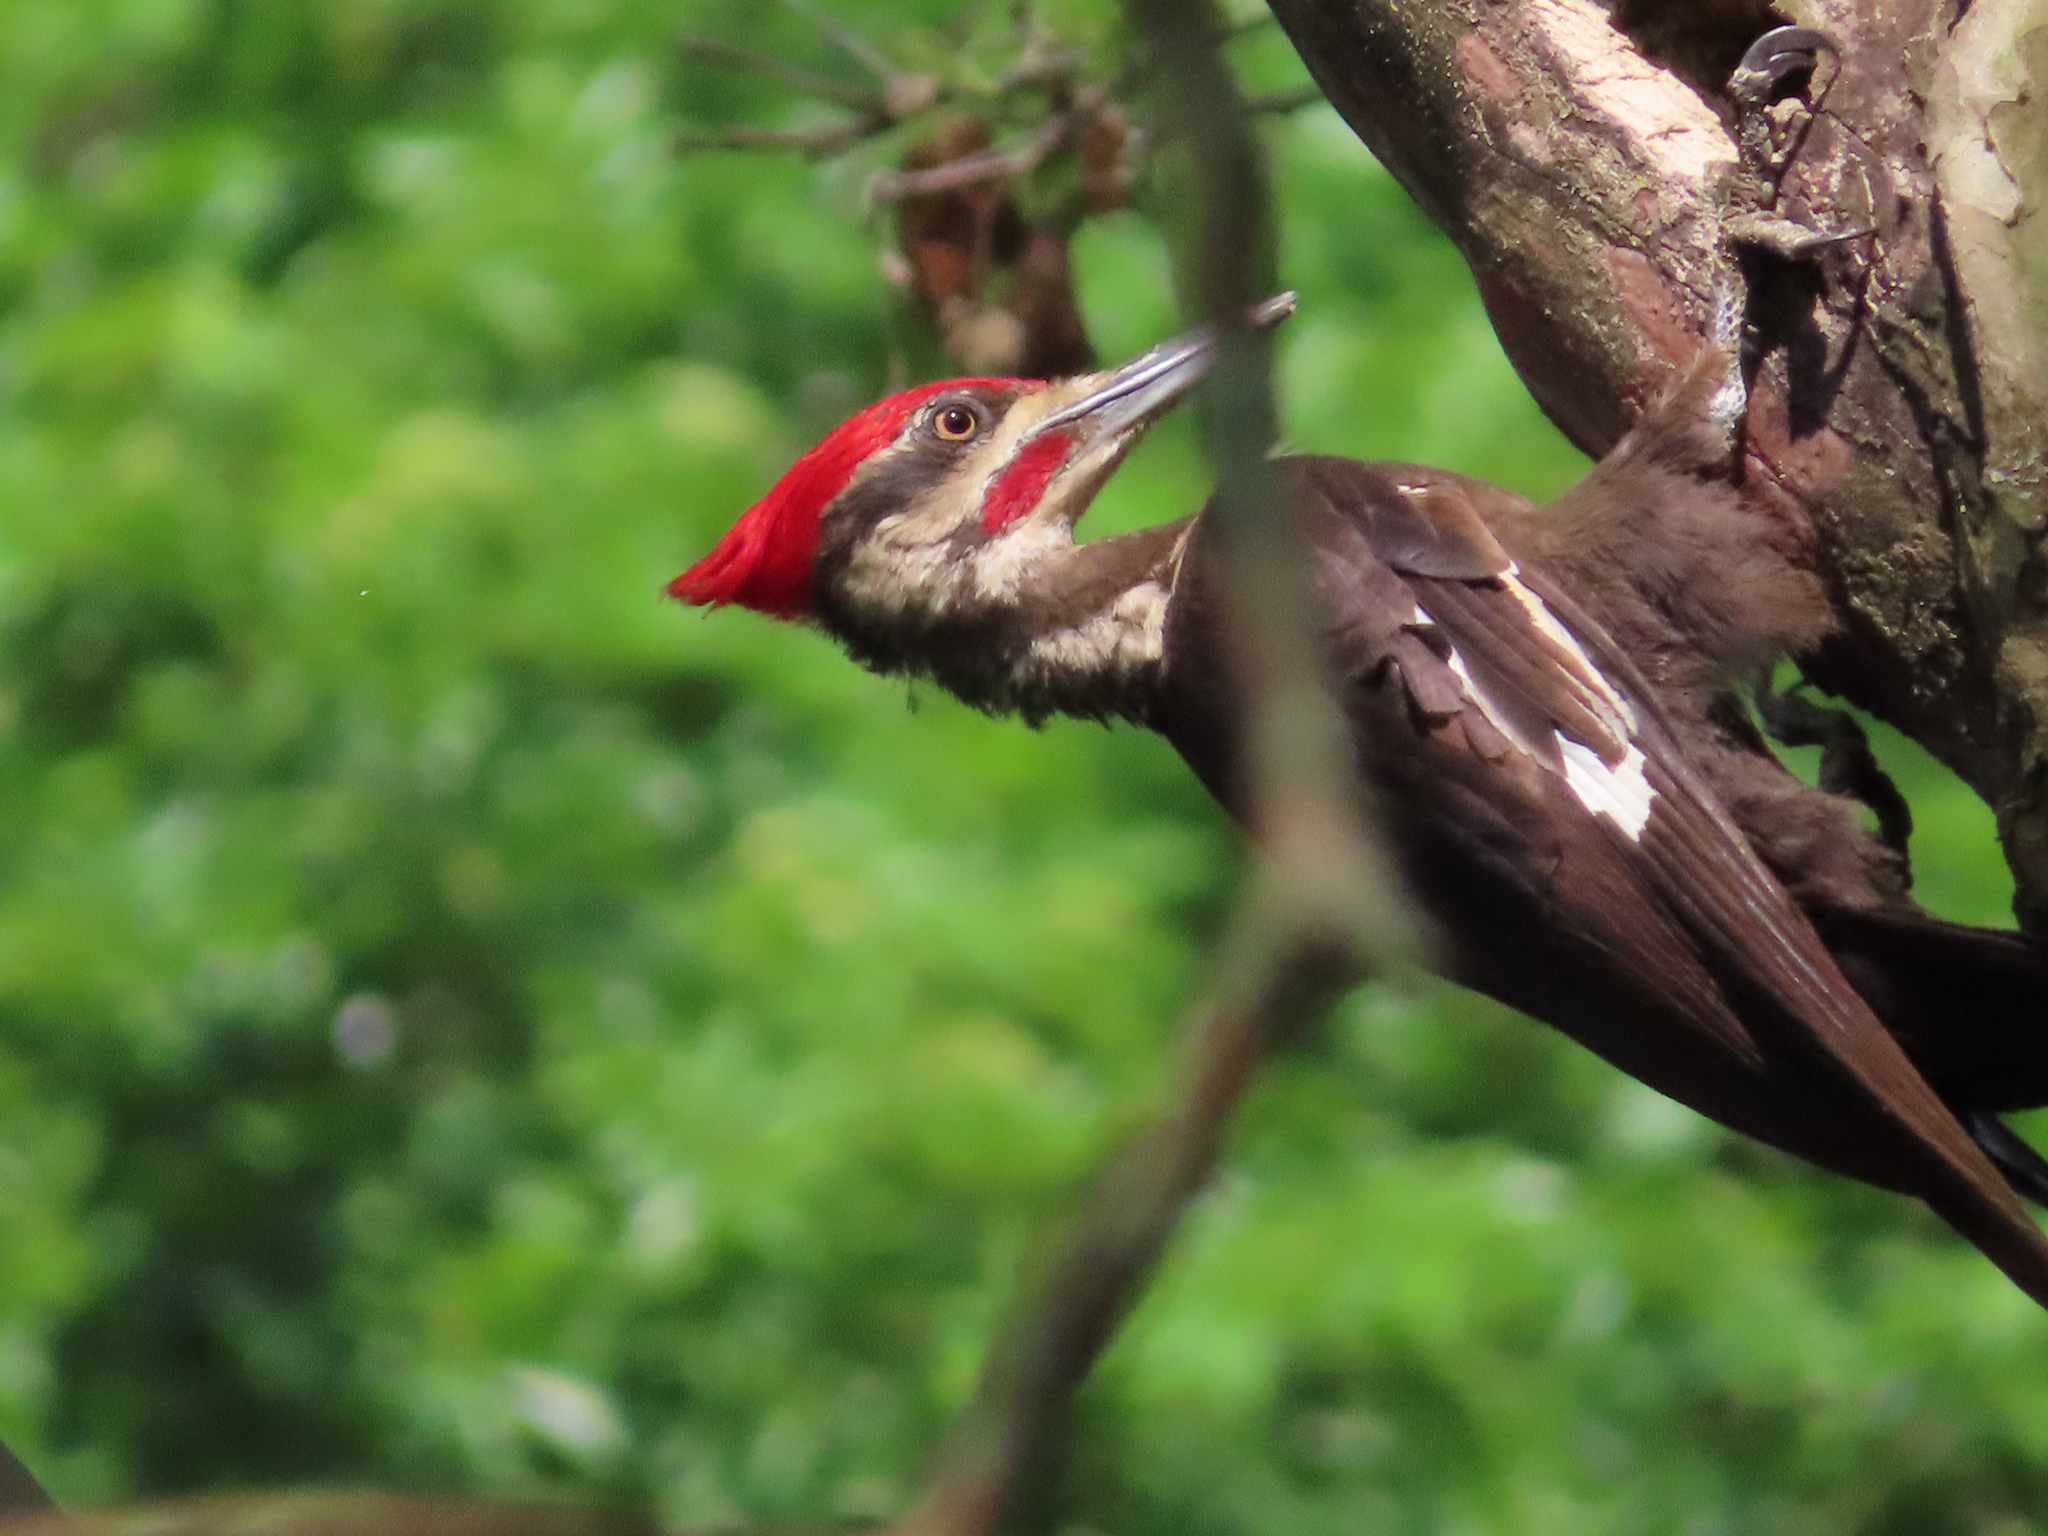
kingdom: Animalia
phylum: Chordata
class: Aves
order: Piciformes
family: Picidae
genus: Dryocopus
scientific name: Dryocopus pileatus
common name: Pileated woodpecker
